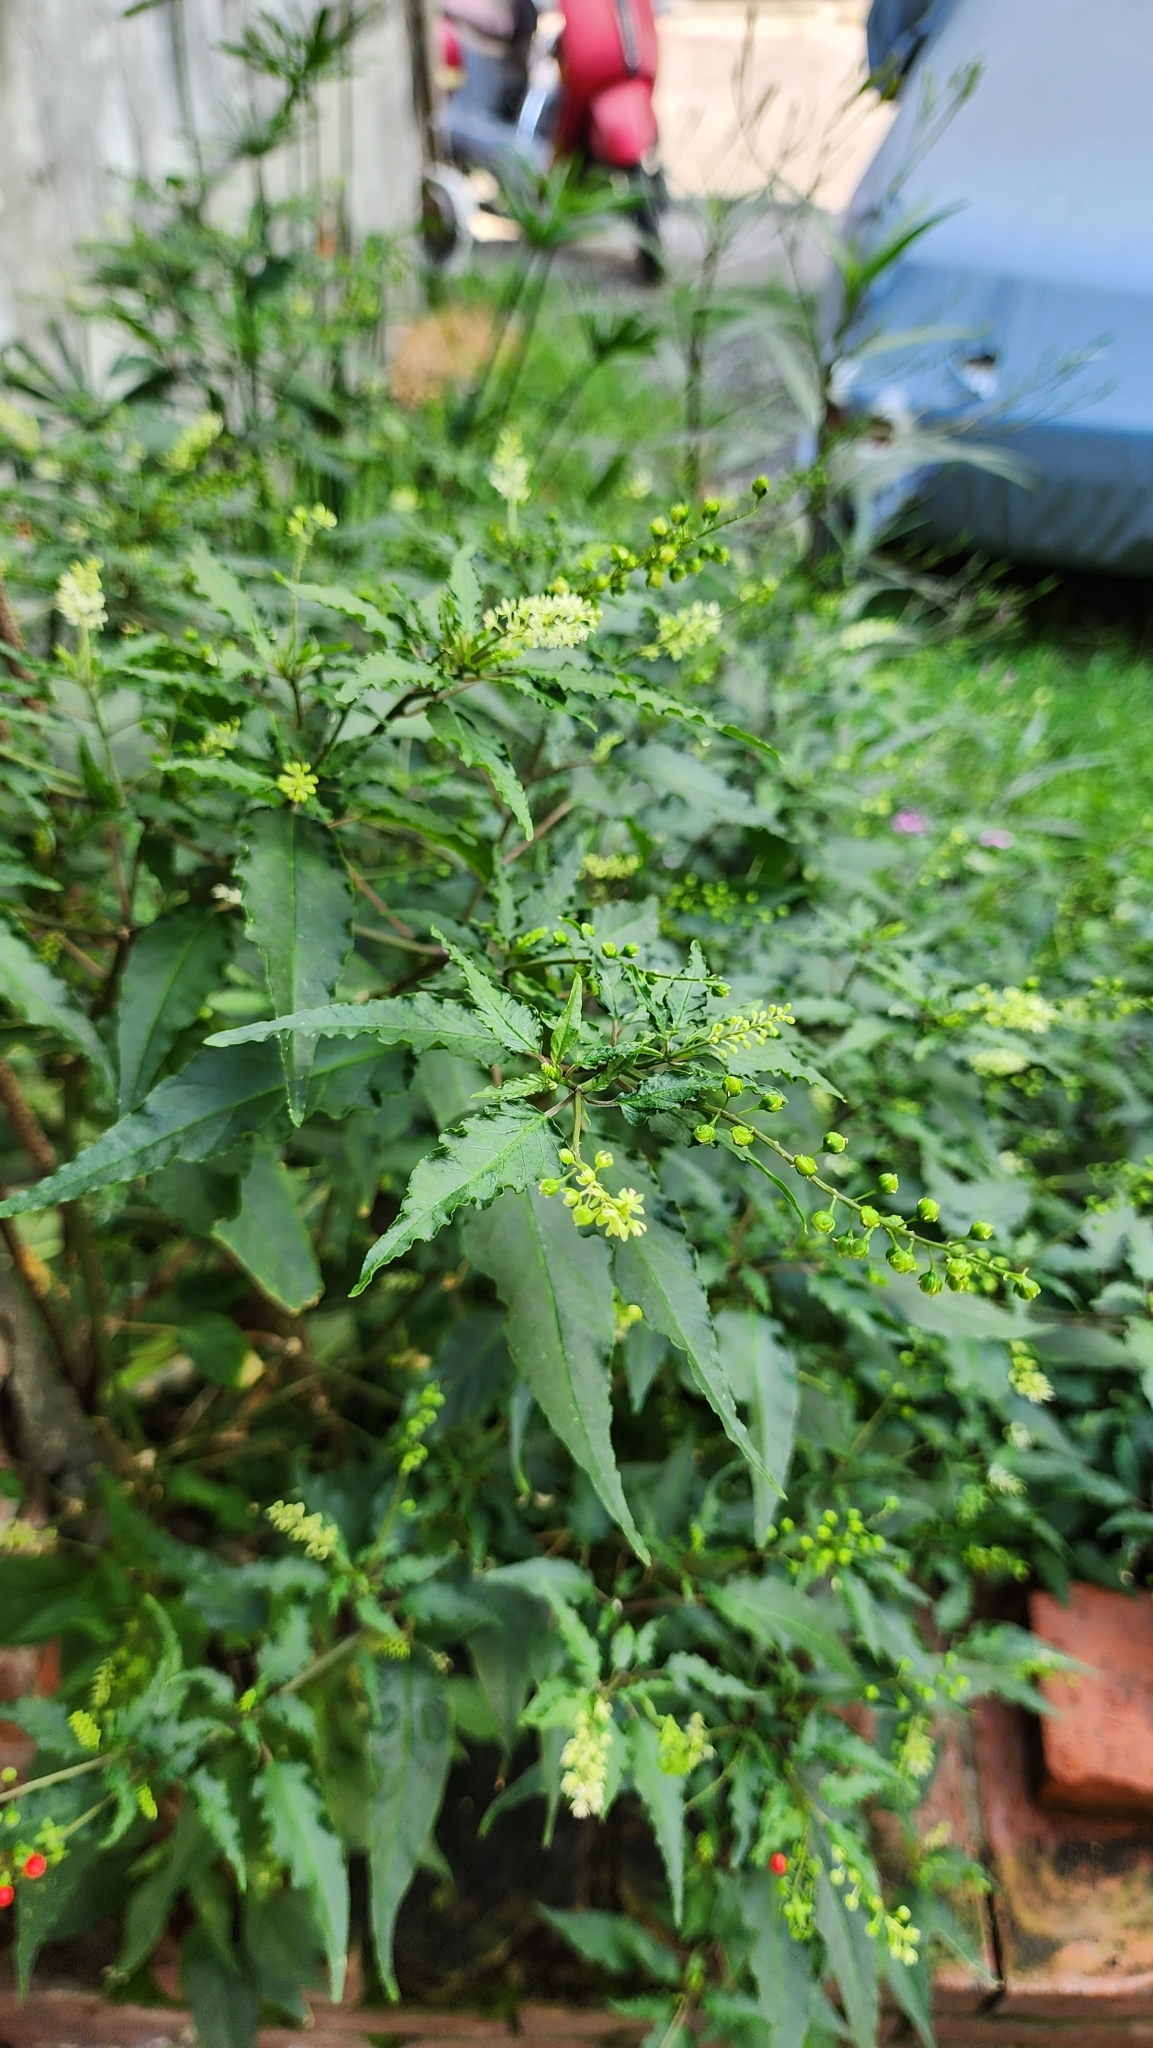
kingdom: Plantae
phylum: Tracheophyta
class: Magnoliopsida
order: Caryophyllales
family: Phytolaccaceae
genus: Rivina
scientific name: Rivina humilis
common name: Rougeplant
